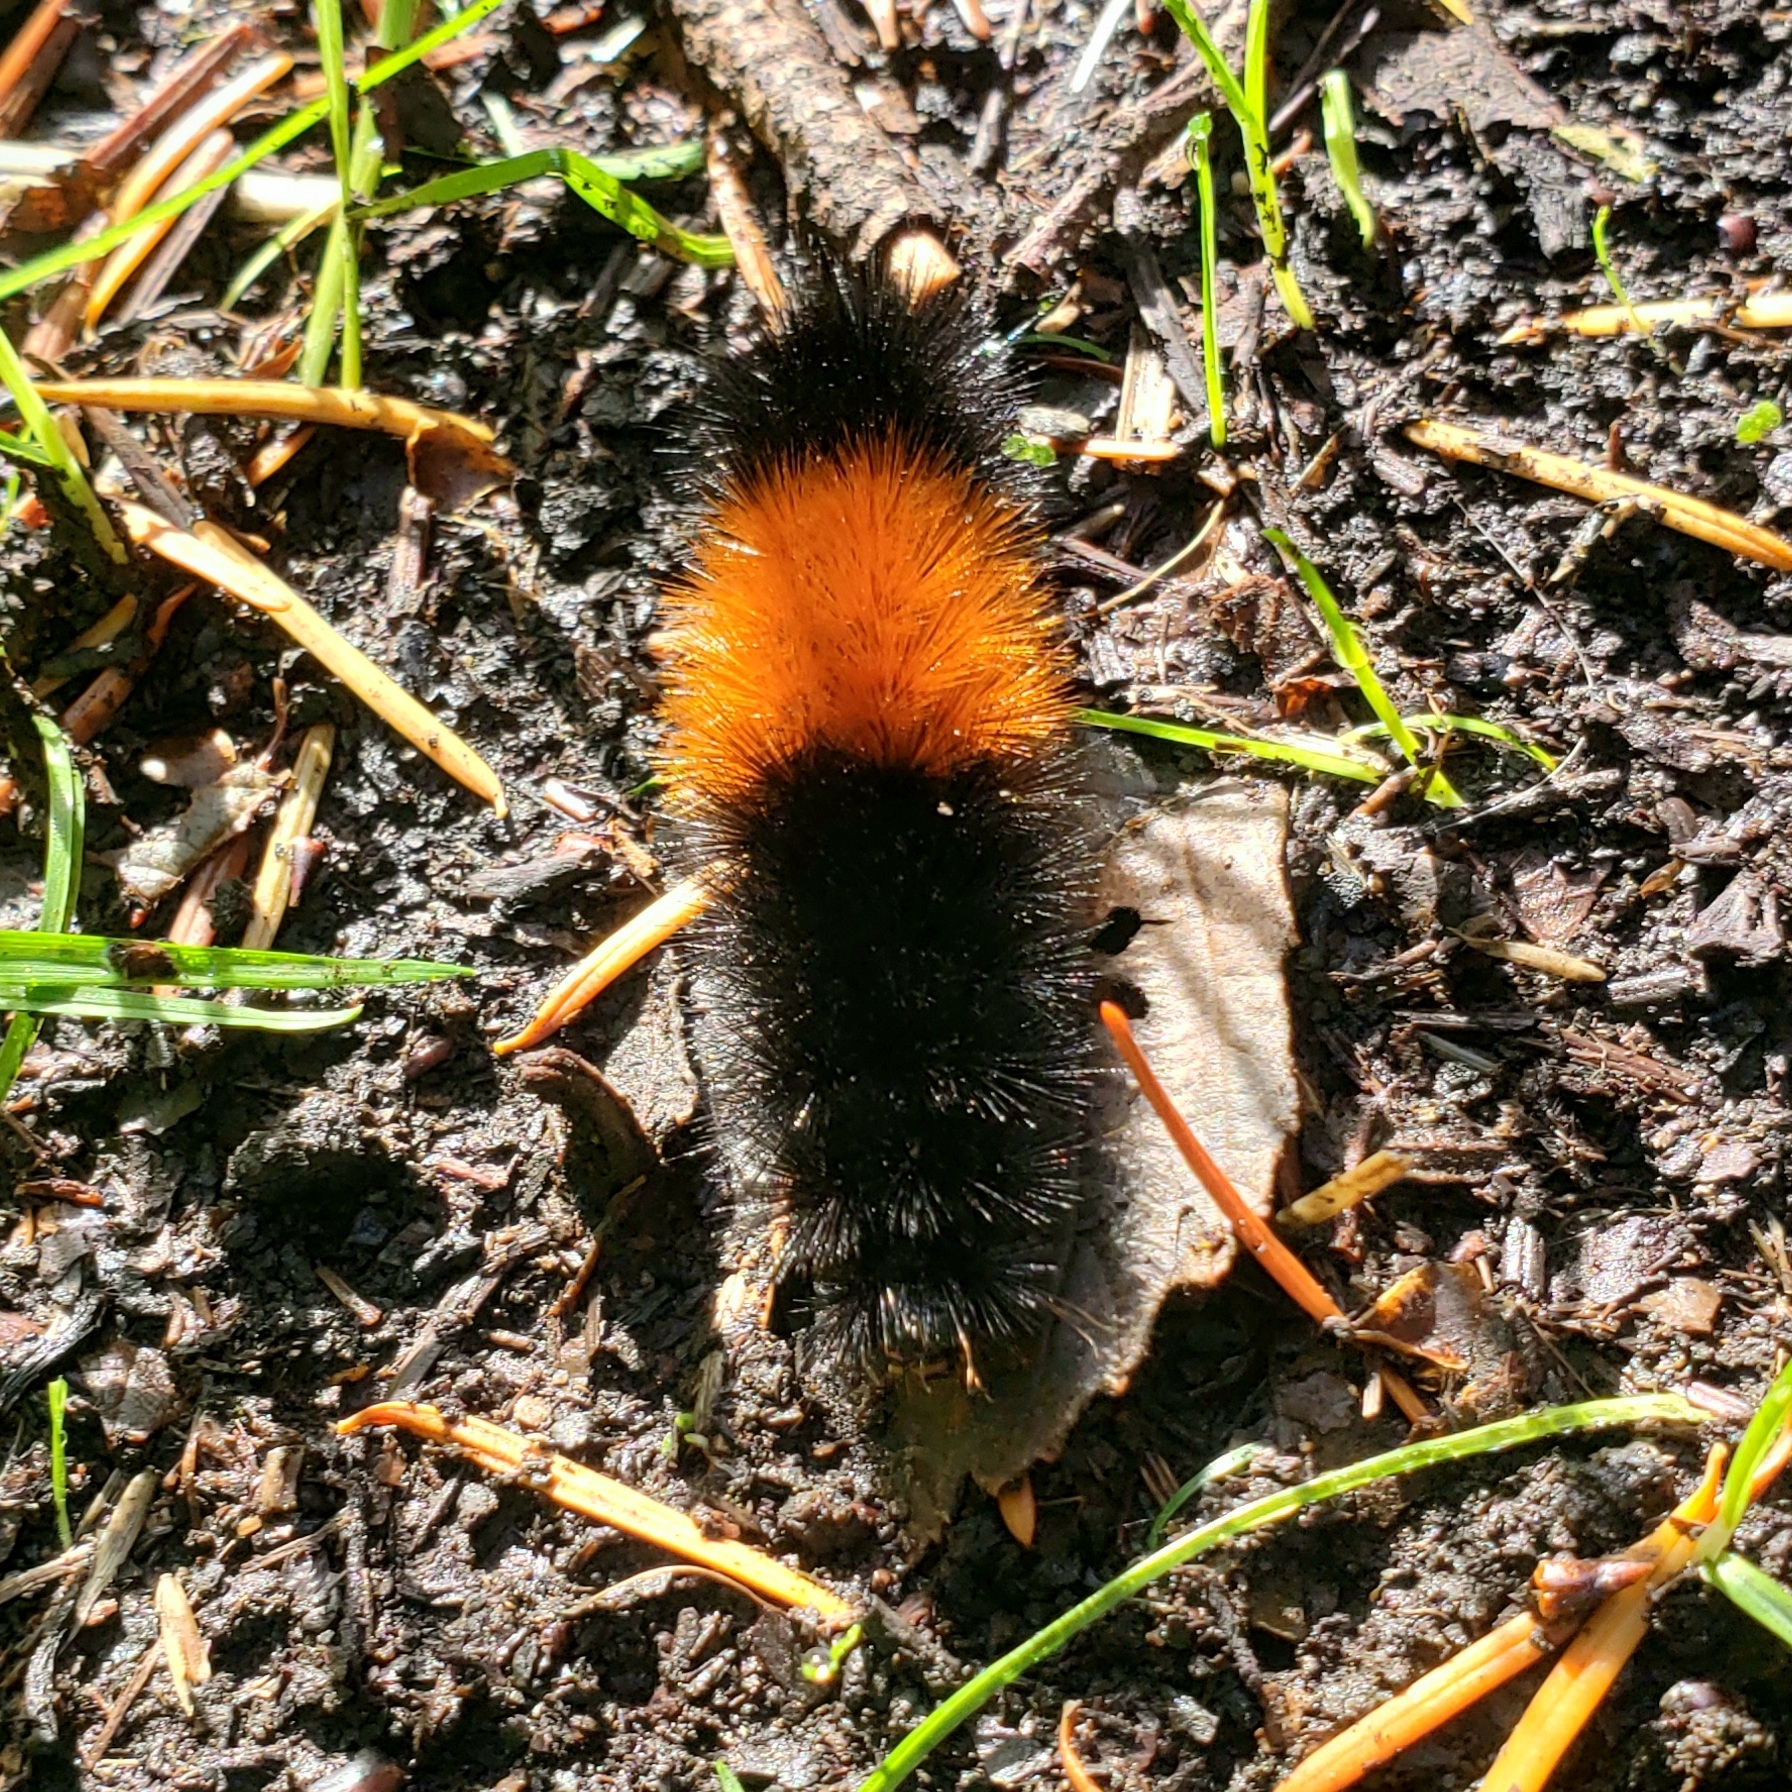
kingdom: Animalia
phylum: Arthropoda
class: Insecta
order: Lepidoptera
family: Erebidae
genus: Pyrrharctia
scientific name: Pyrrharctia isabella
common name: Isabella tiger moth
